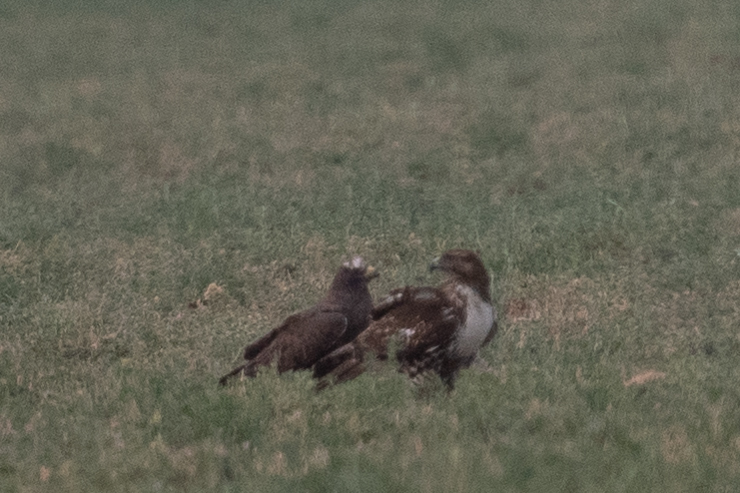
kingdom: Animalia
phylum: Chordata
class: Aves
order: Accipitriformes
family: Accipitridae
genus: Buteo
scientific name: Buteo jamaicensis
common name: Red-tailed hawk
